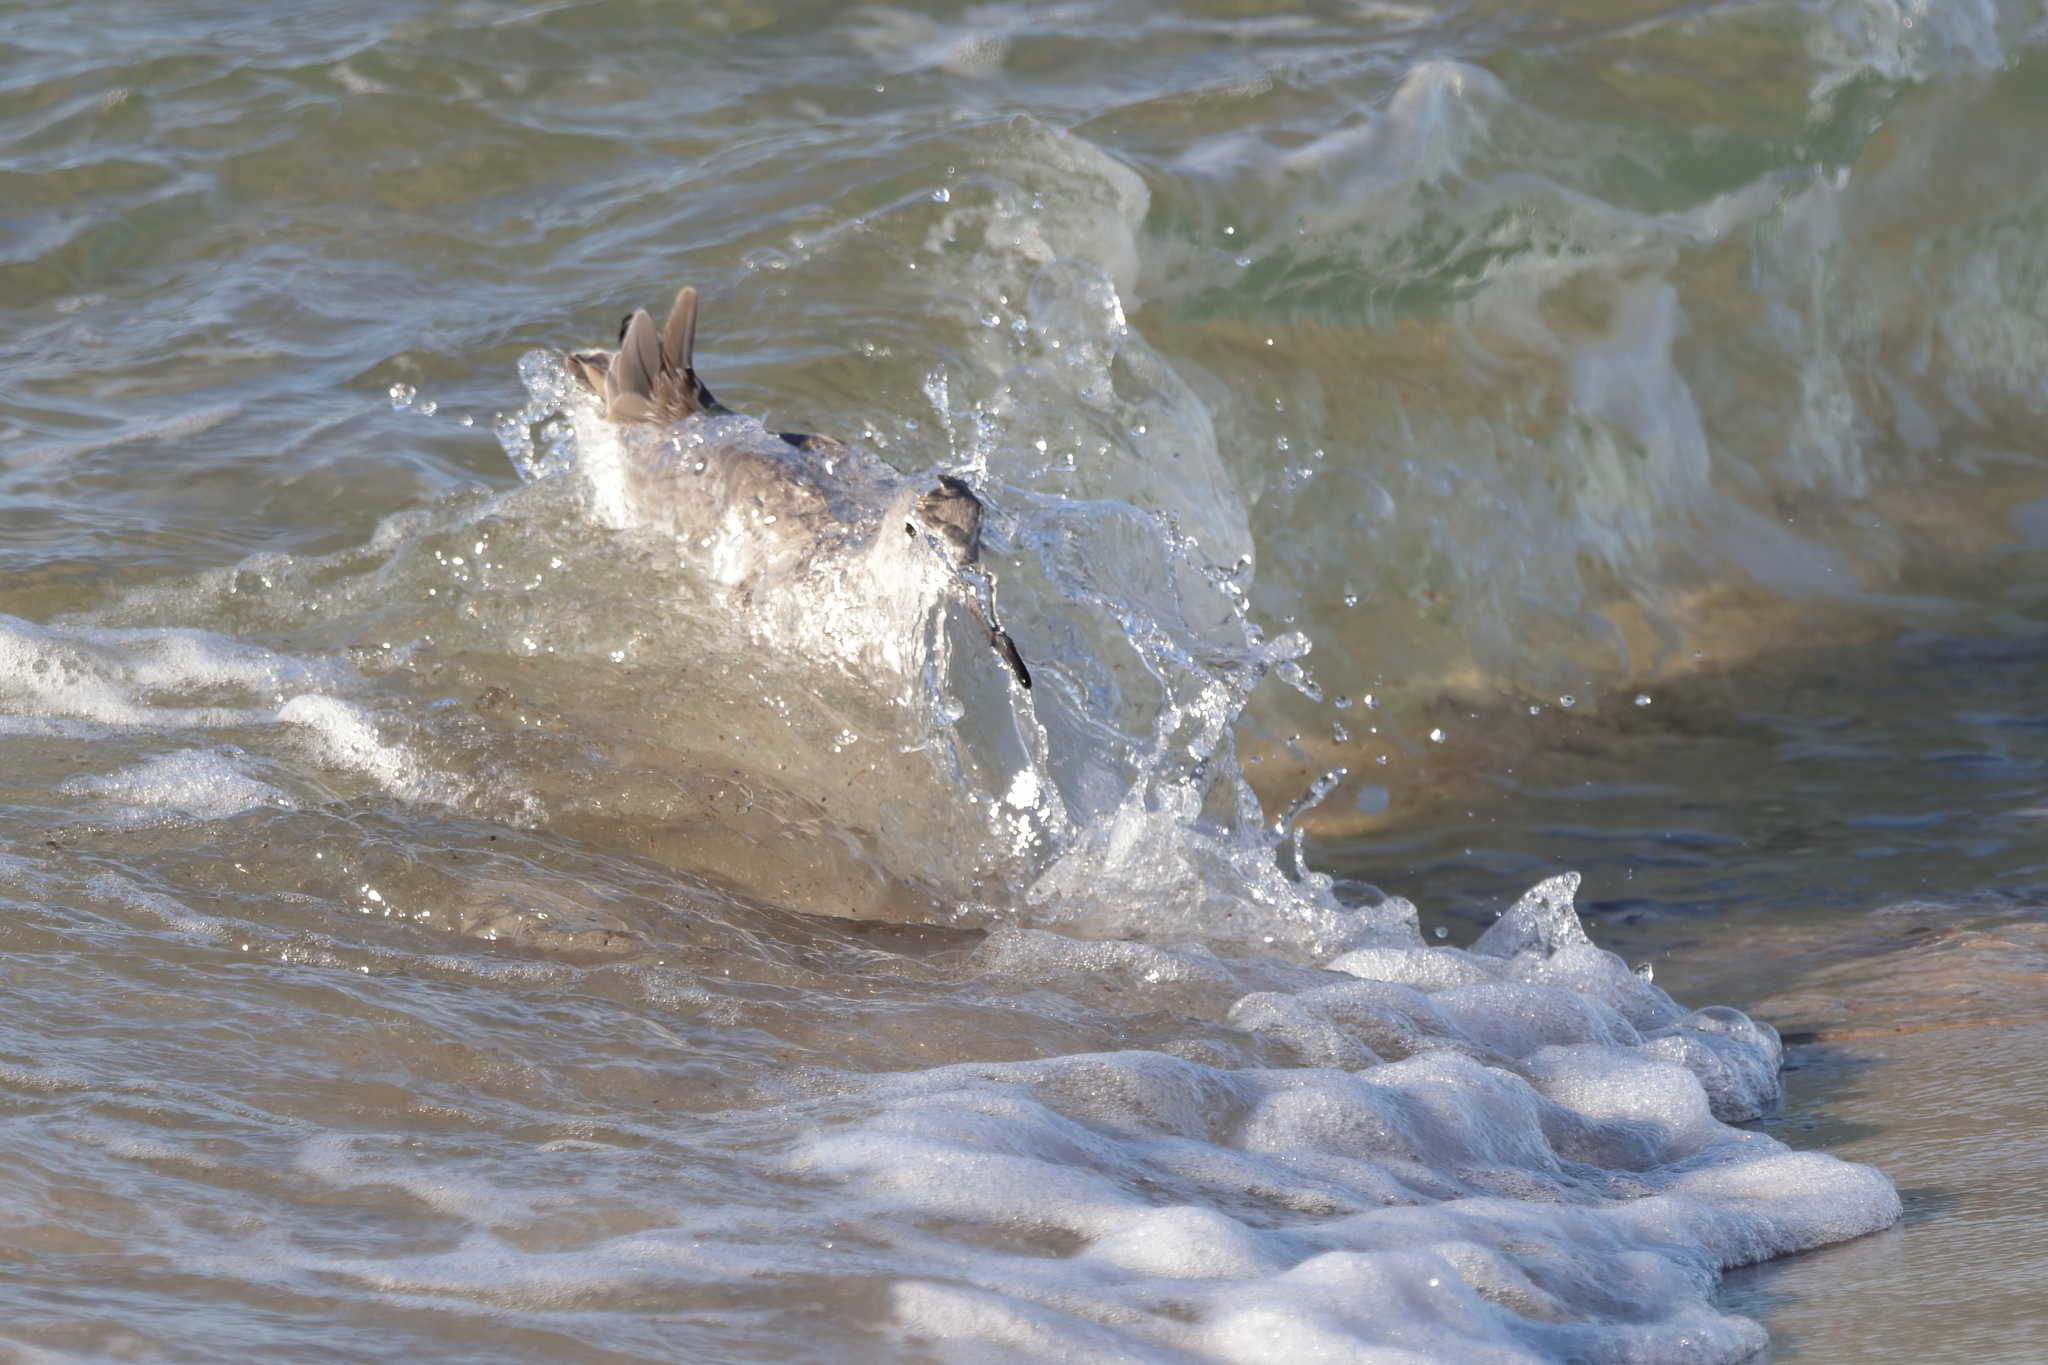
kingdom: Animalia
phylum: Chordata
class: Aves
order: Charadriiformes
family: Scolopacidae
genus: Tringa
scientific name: Tringa semipalmata
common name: Willet
